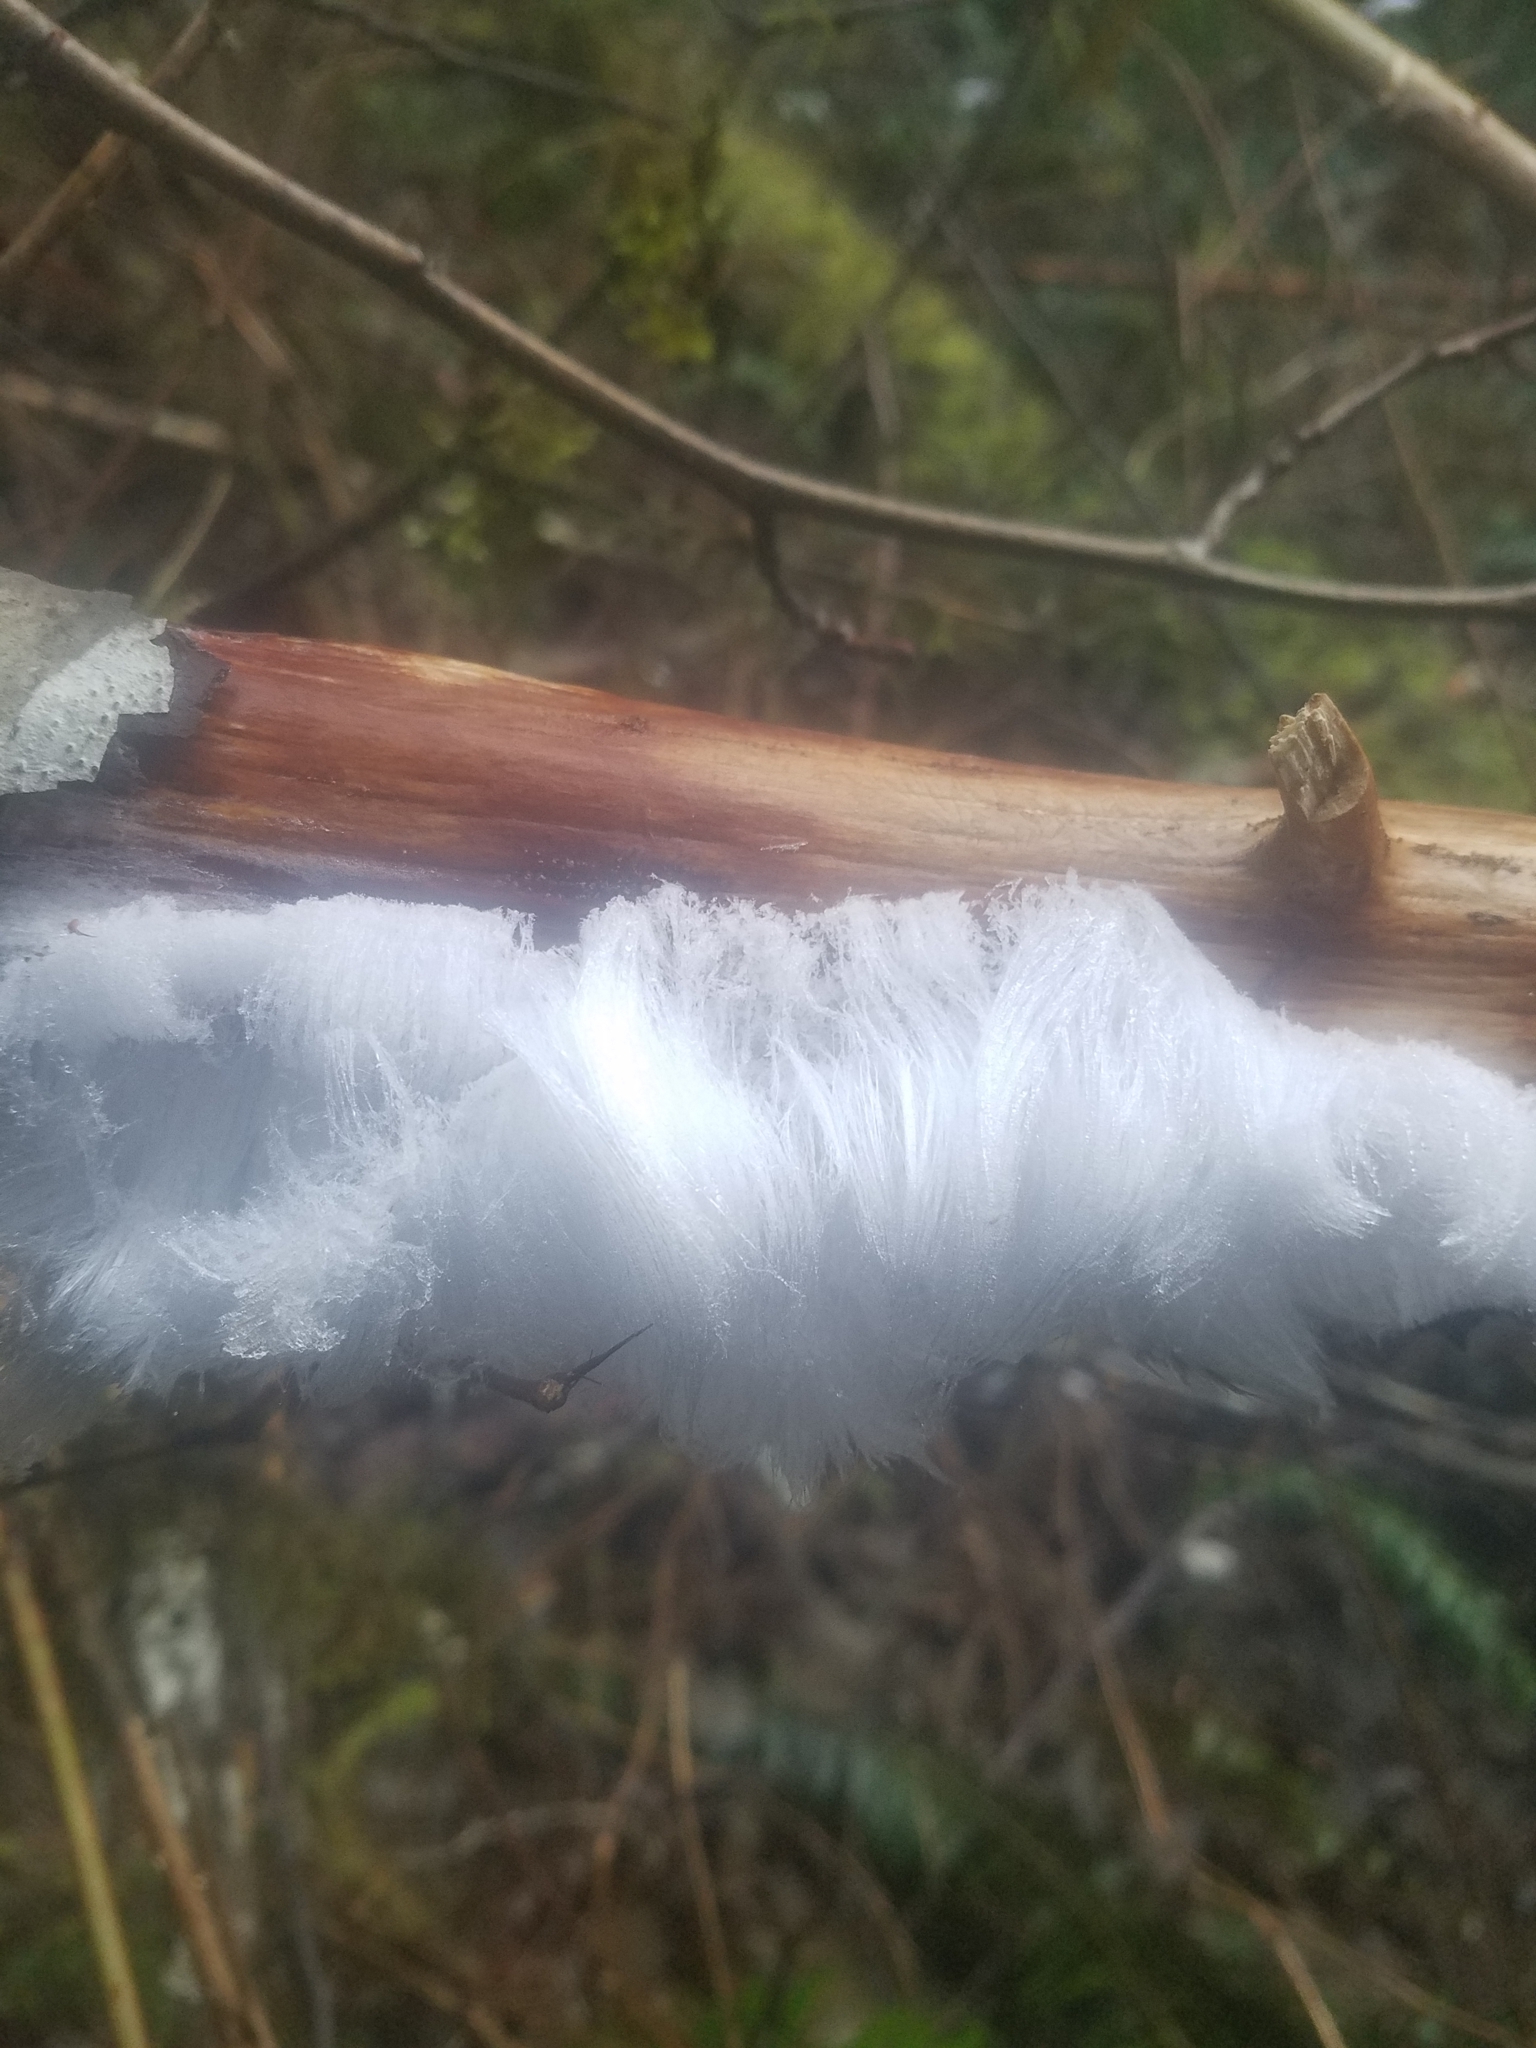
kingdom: Fungi
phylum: Basidiomycota
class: Agaricomycetes
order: Auriculariales
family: Auriculariaceae
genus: Exidiopsis
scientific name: Exidiopsis effusa
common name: Hair ice crust
